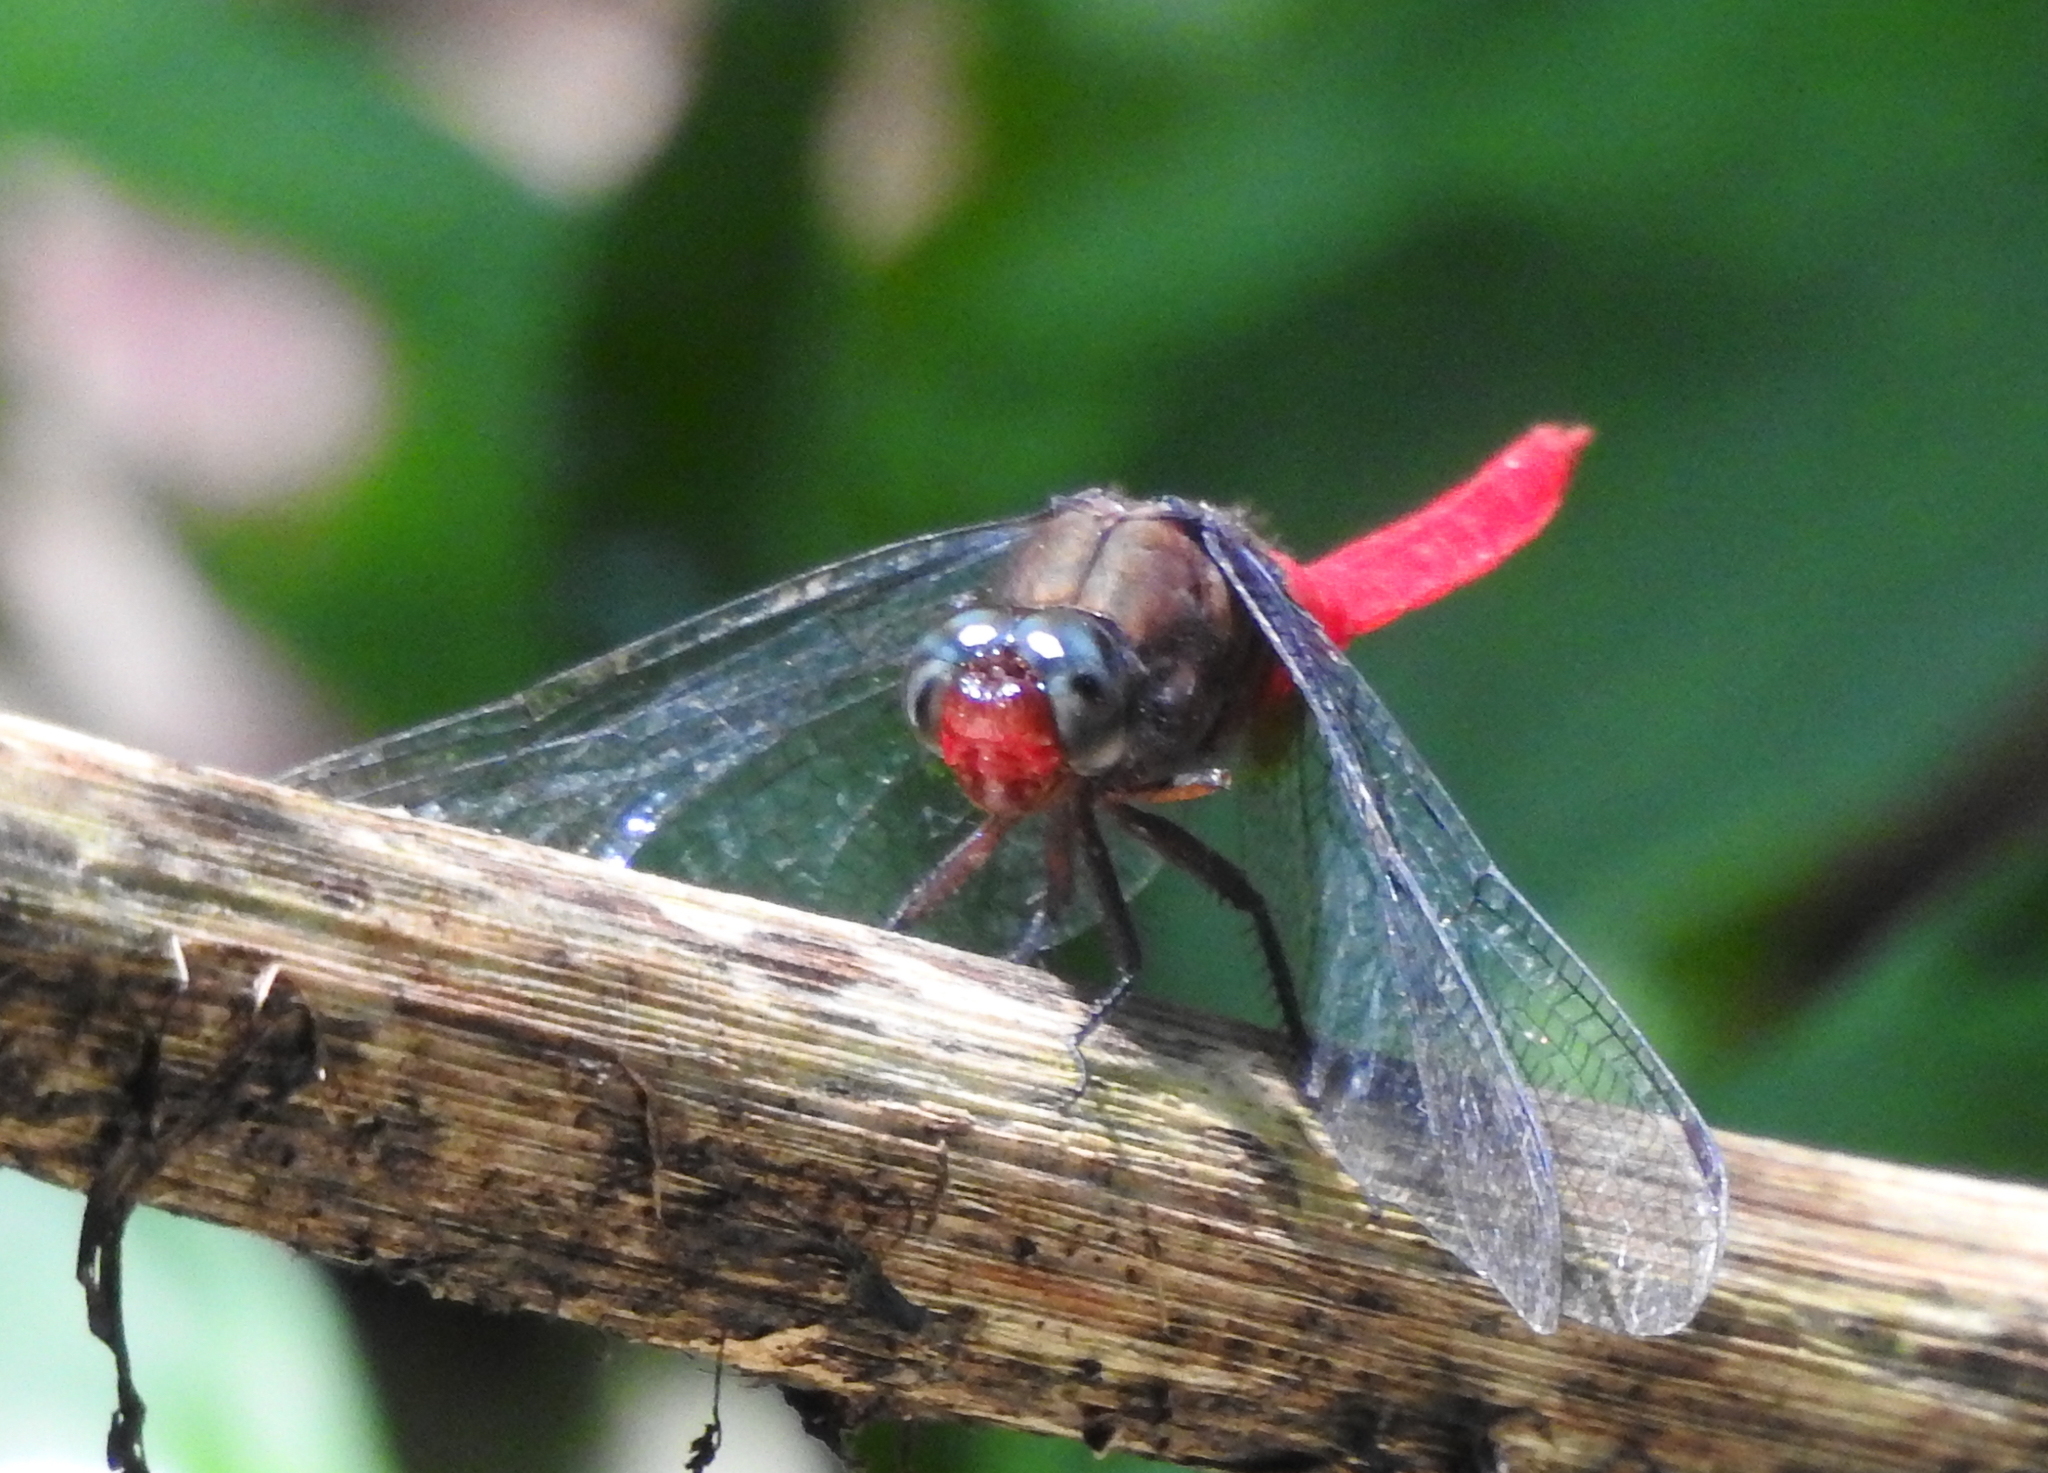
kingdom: Animalia
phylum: Arthropoda
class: Insecta
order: Odonata
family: Libellulidae
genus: Orthetrum
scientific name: Orthetrum chrysis
